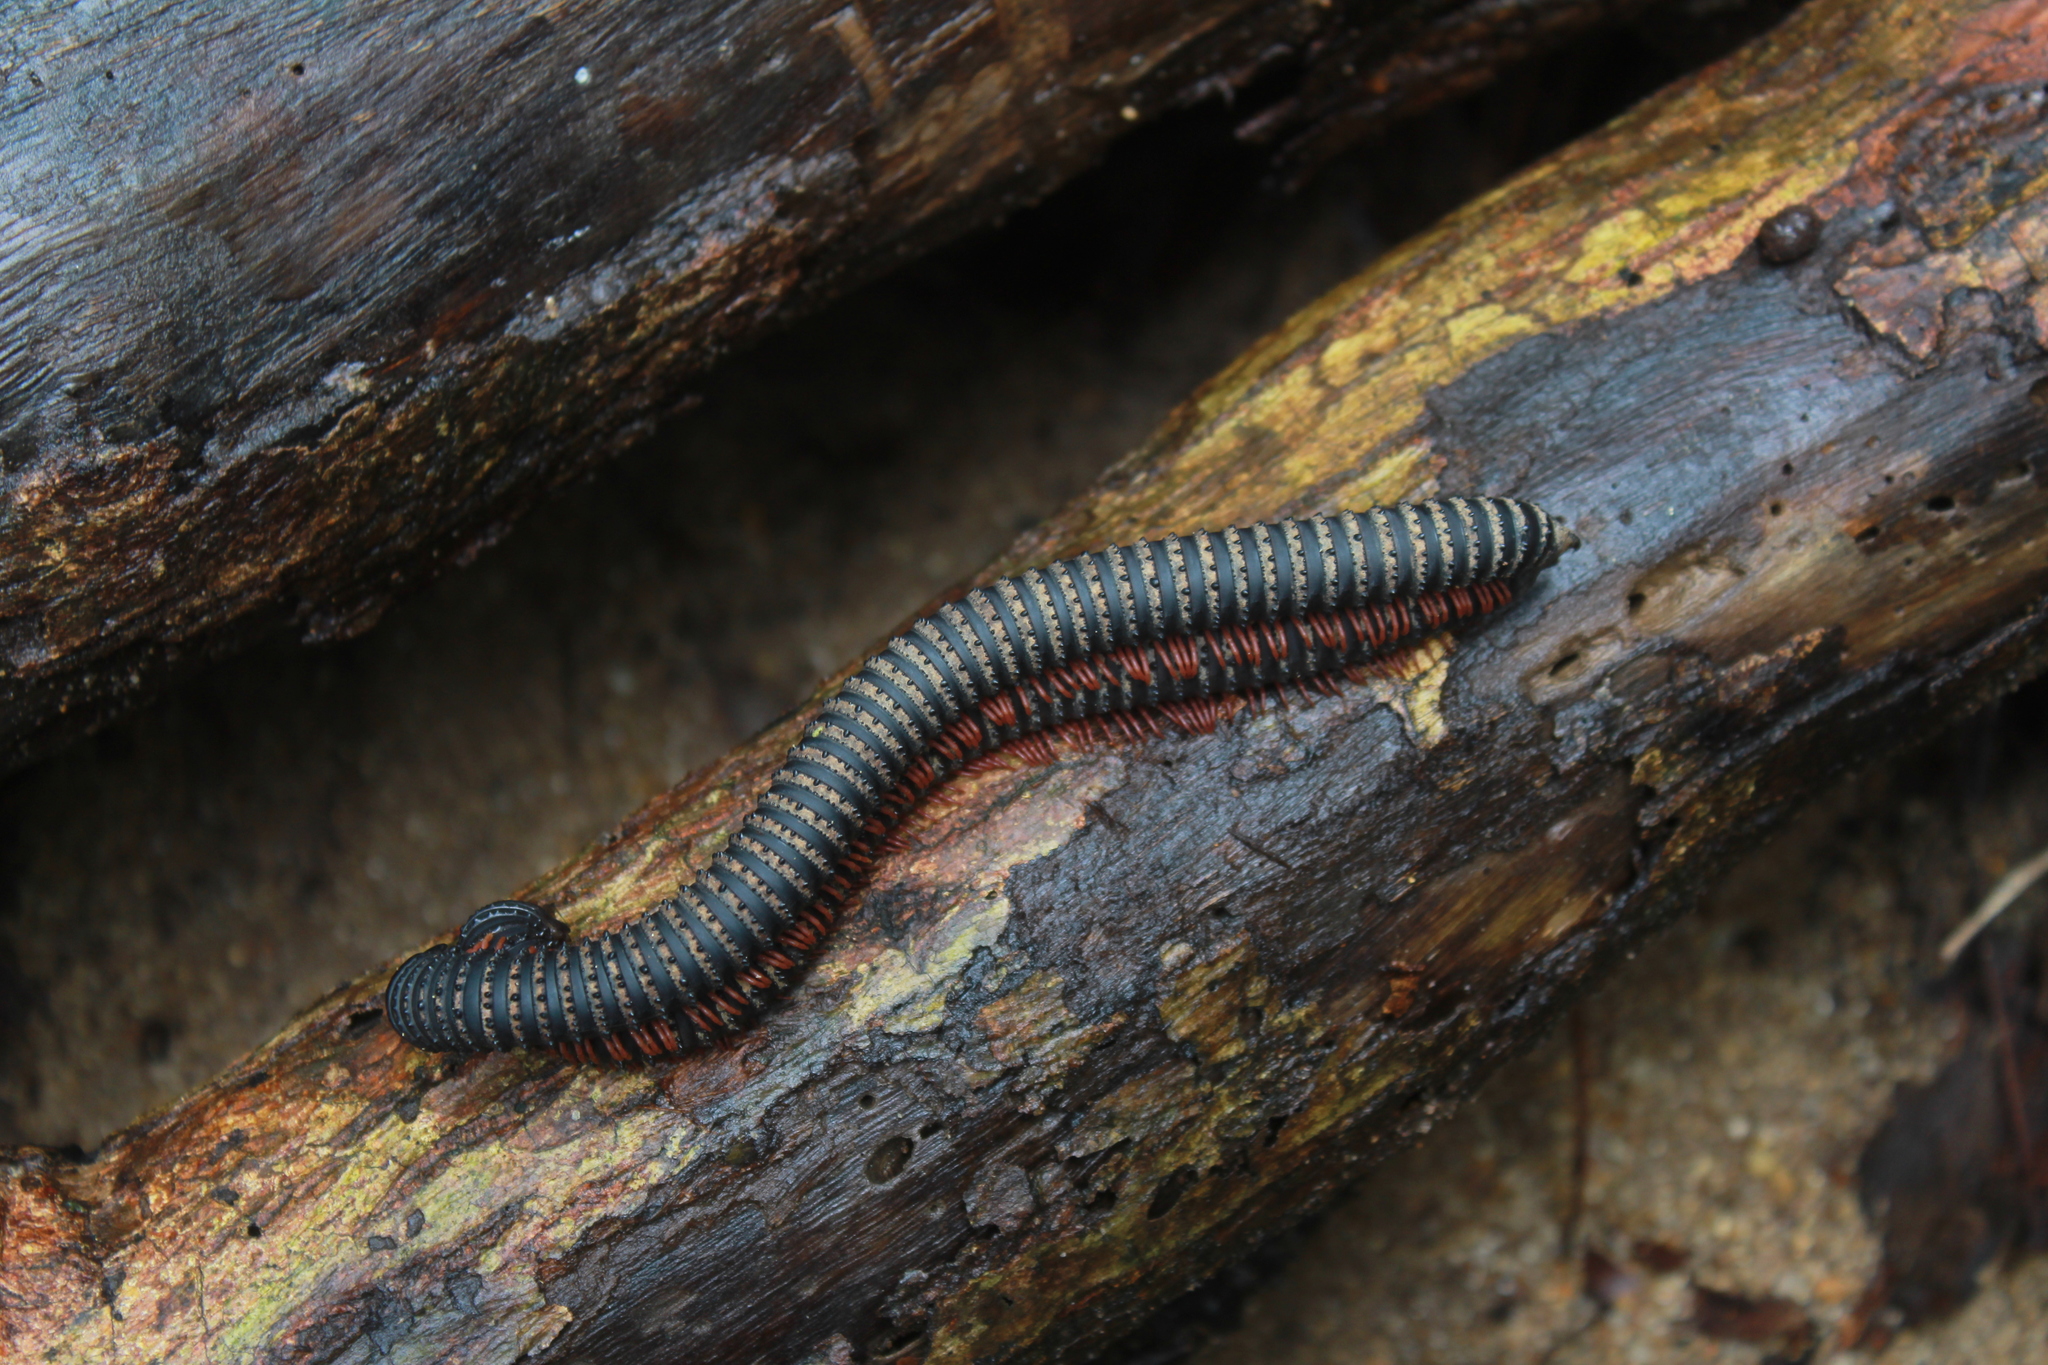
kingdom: Animalia
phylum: Arthropoda
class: Diplopoda
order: Spirobolida
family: Pachybolidae
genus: Eucentrobolus
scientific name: Eucentrobolus tamulus
